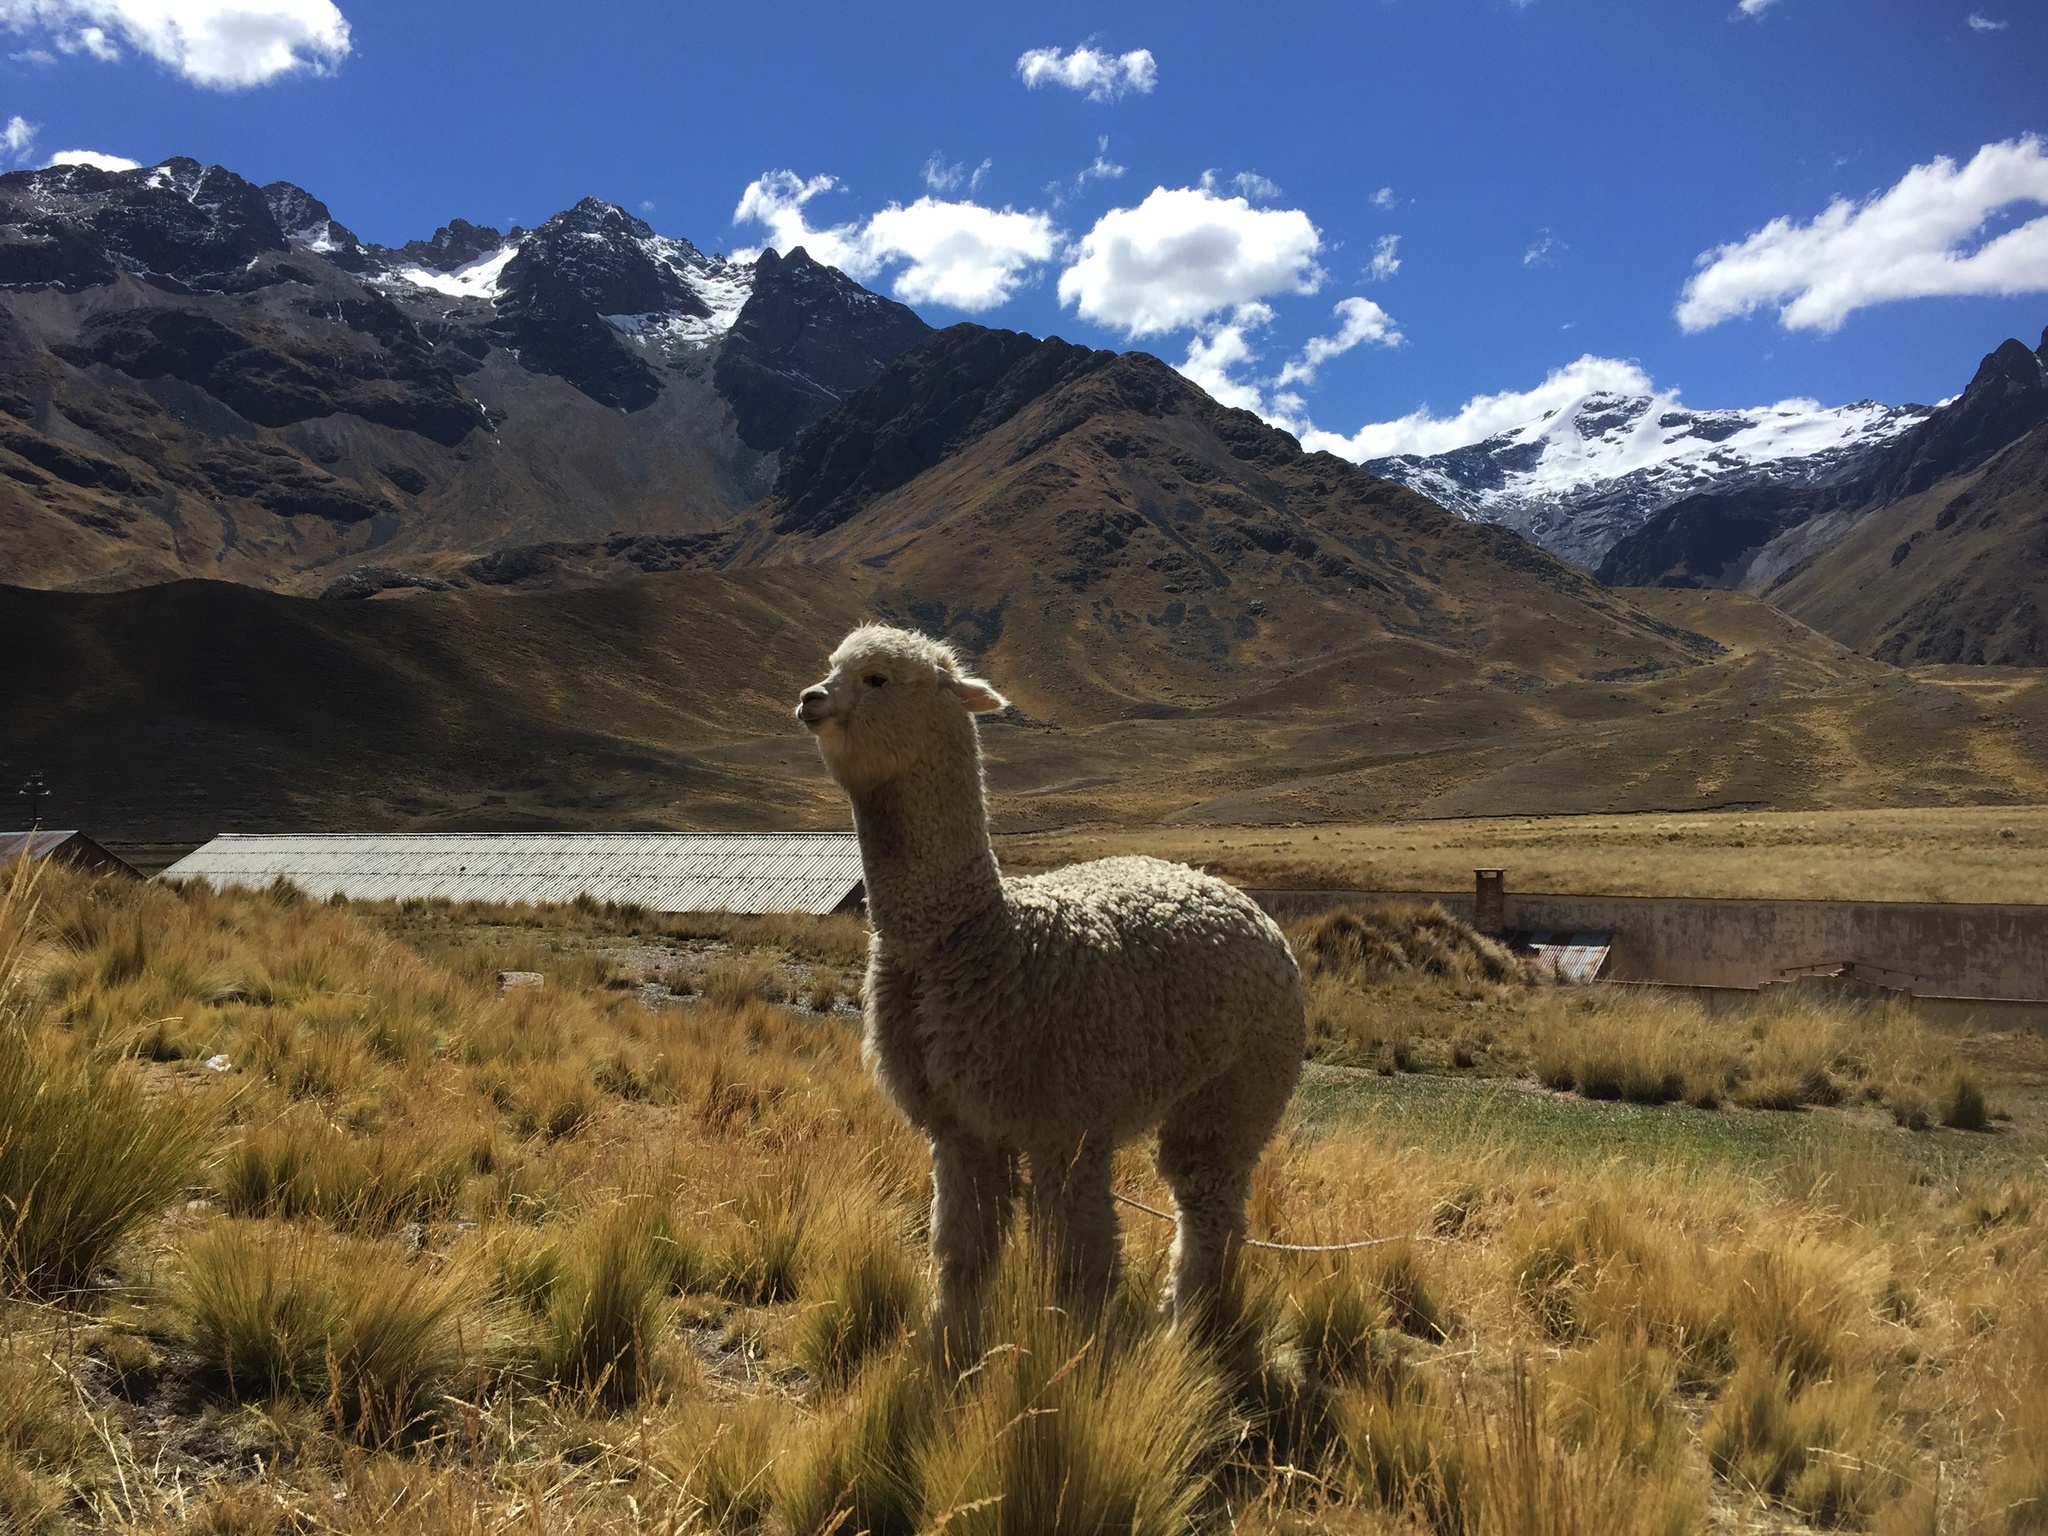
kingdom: Animalia
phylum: Chordata
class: Mammalia
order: Artiodactyla
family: Camelidae
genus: Vicugna
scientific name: Vicugna pacos
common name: Alpaca
